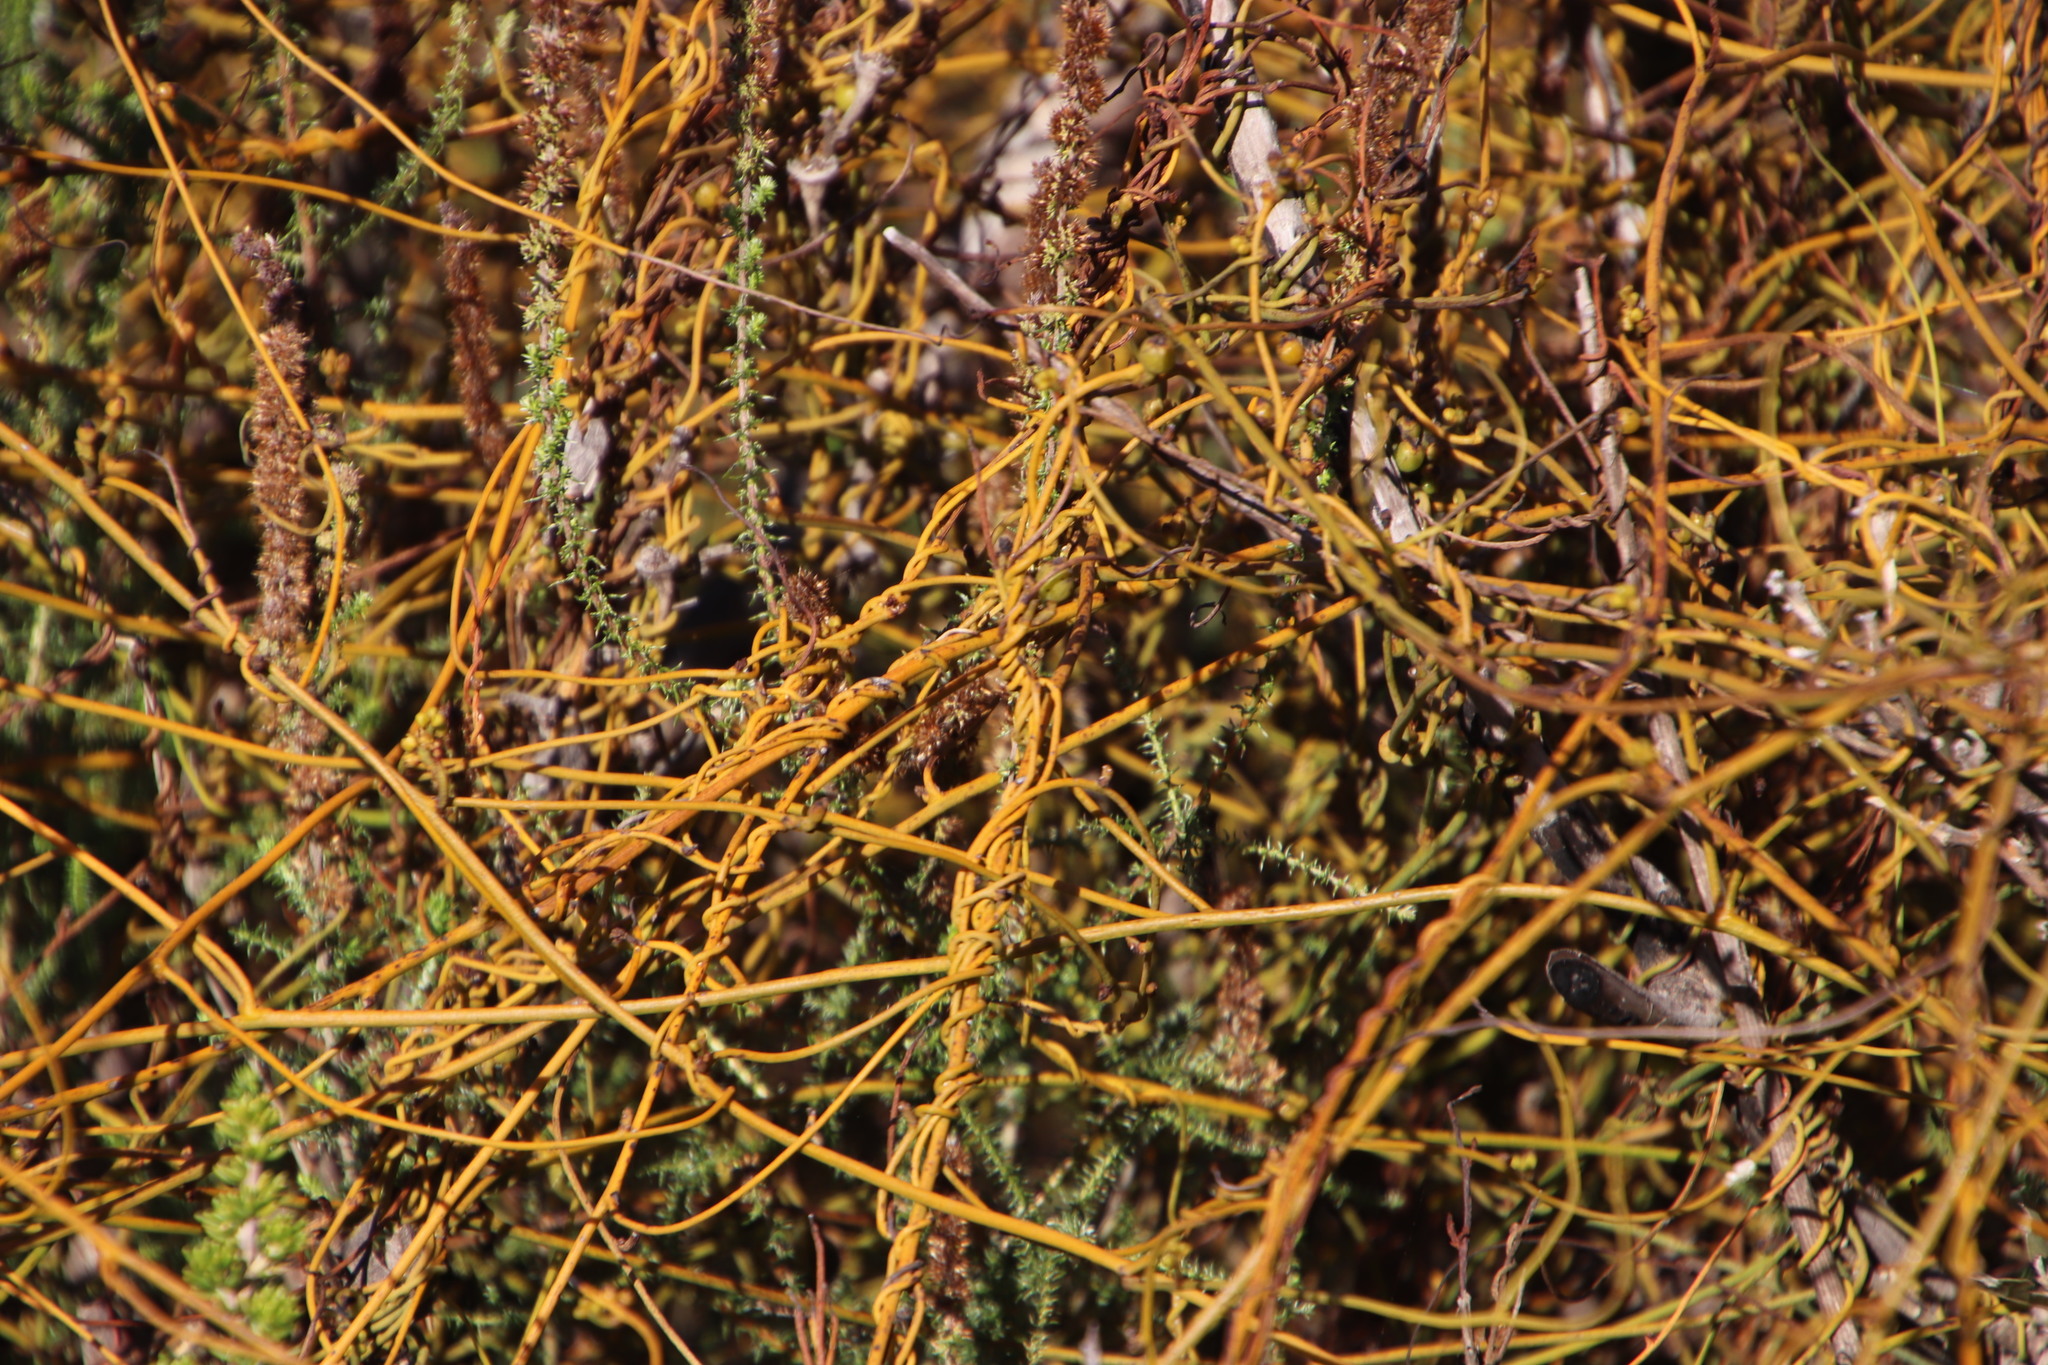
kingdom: Plantae
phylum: Tracheophyta
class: Magnoliopsida
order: Laurales
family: Lauraceae
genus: Cassytha
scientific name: Cassytha ciliolata
